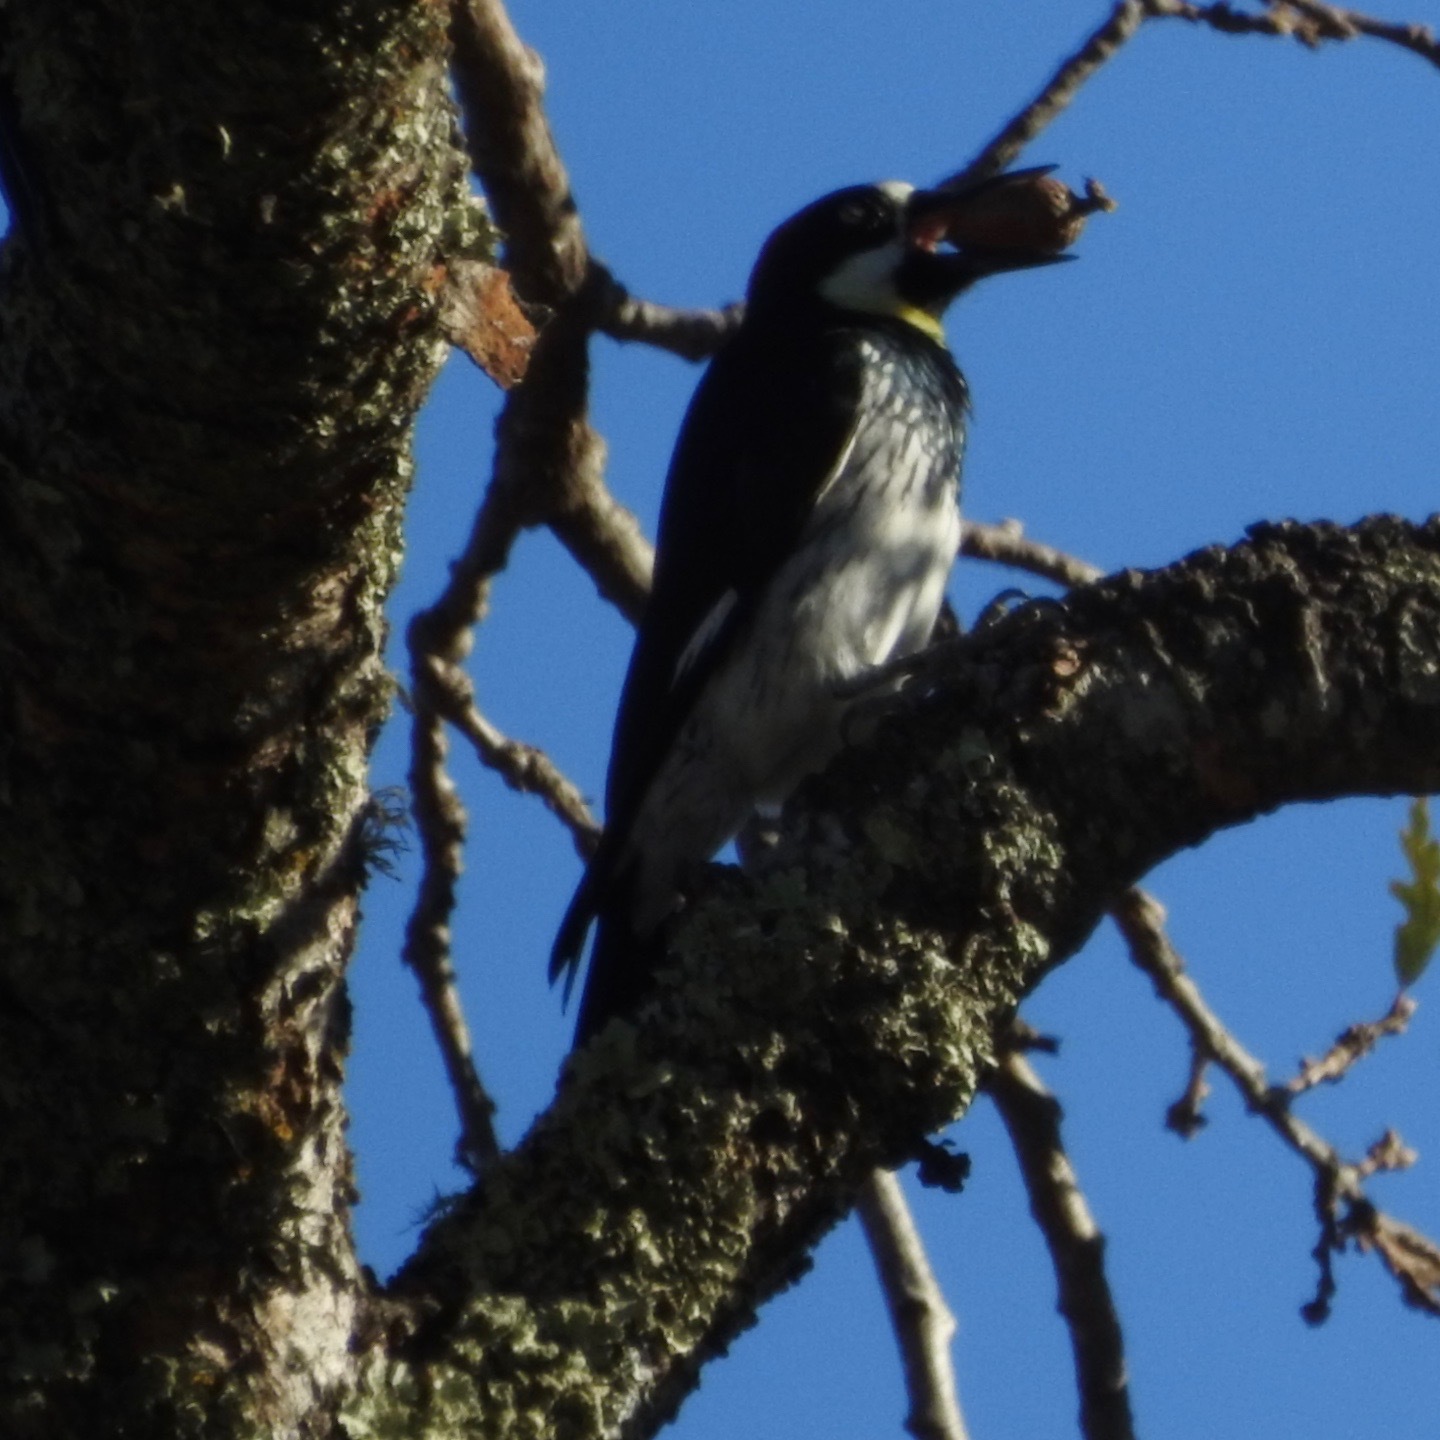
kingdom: Animalia
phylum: Chordata
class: Aves
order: Piciformes
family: Picidae
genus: Melanerpes
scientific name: Melanerpes formicivorus
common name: Acorn woodpecker
